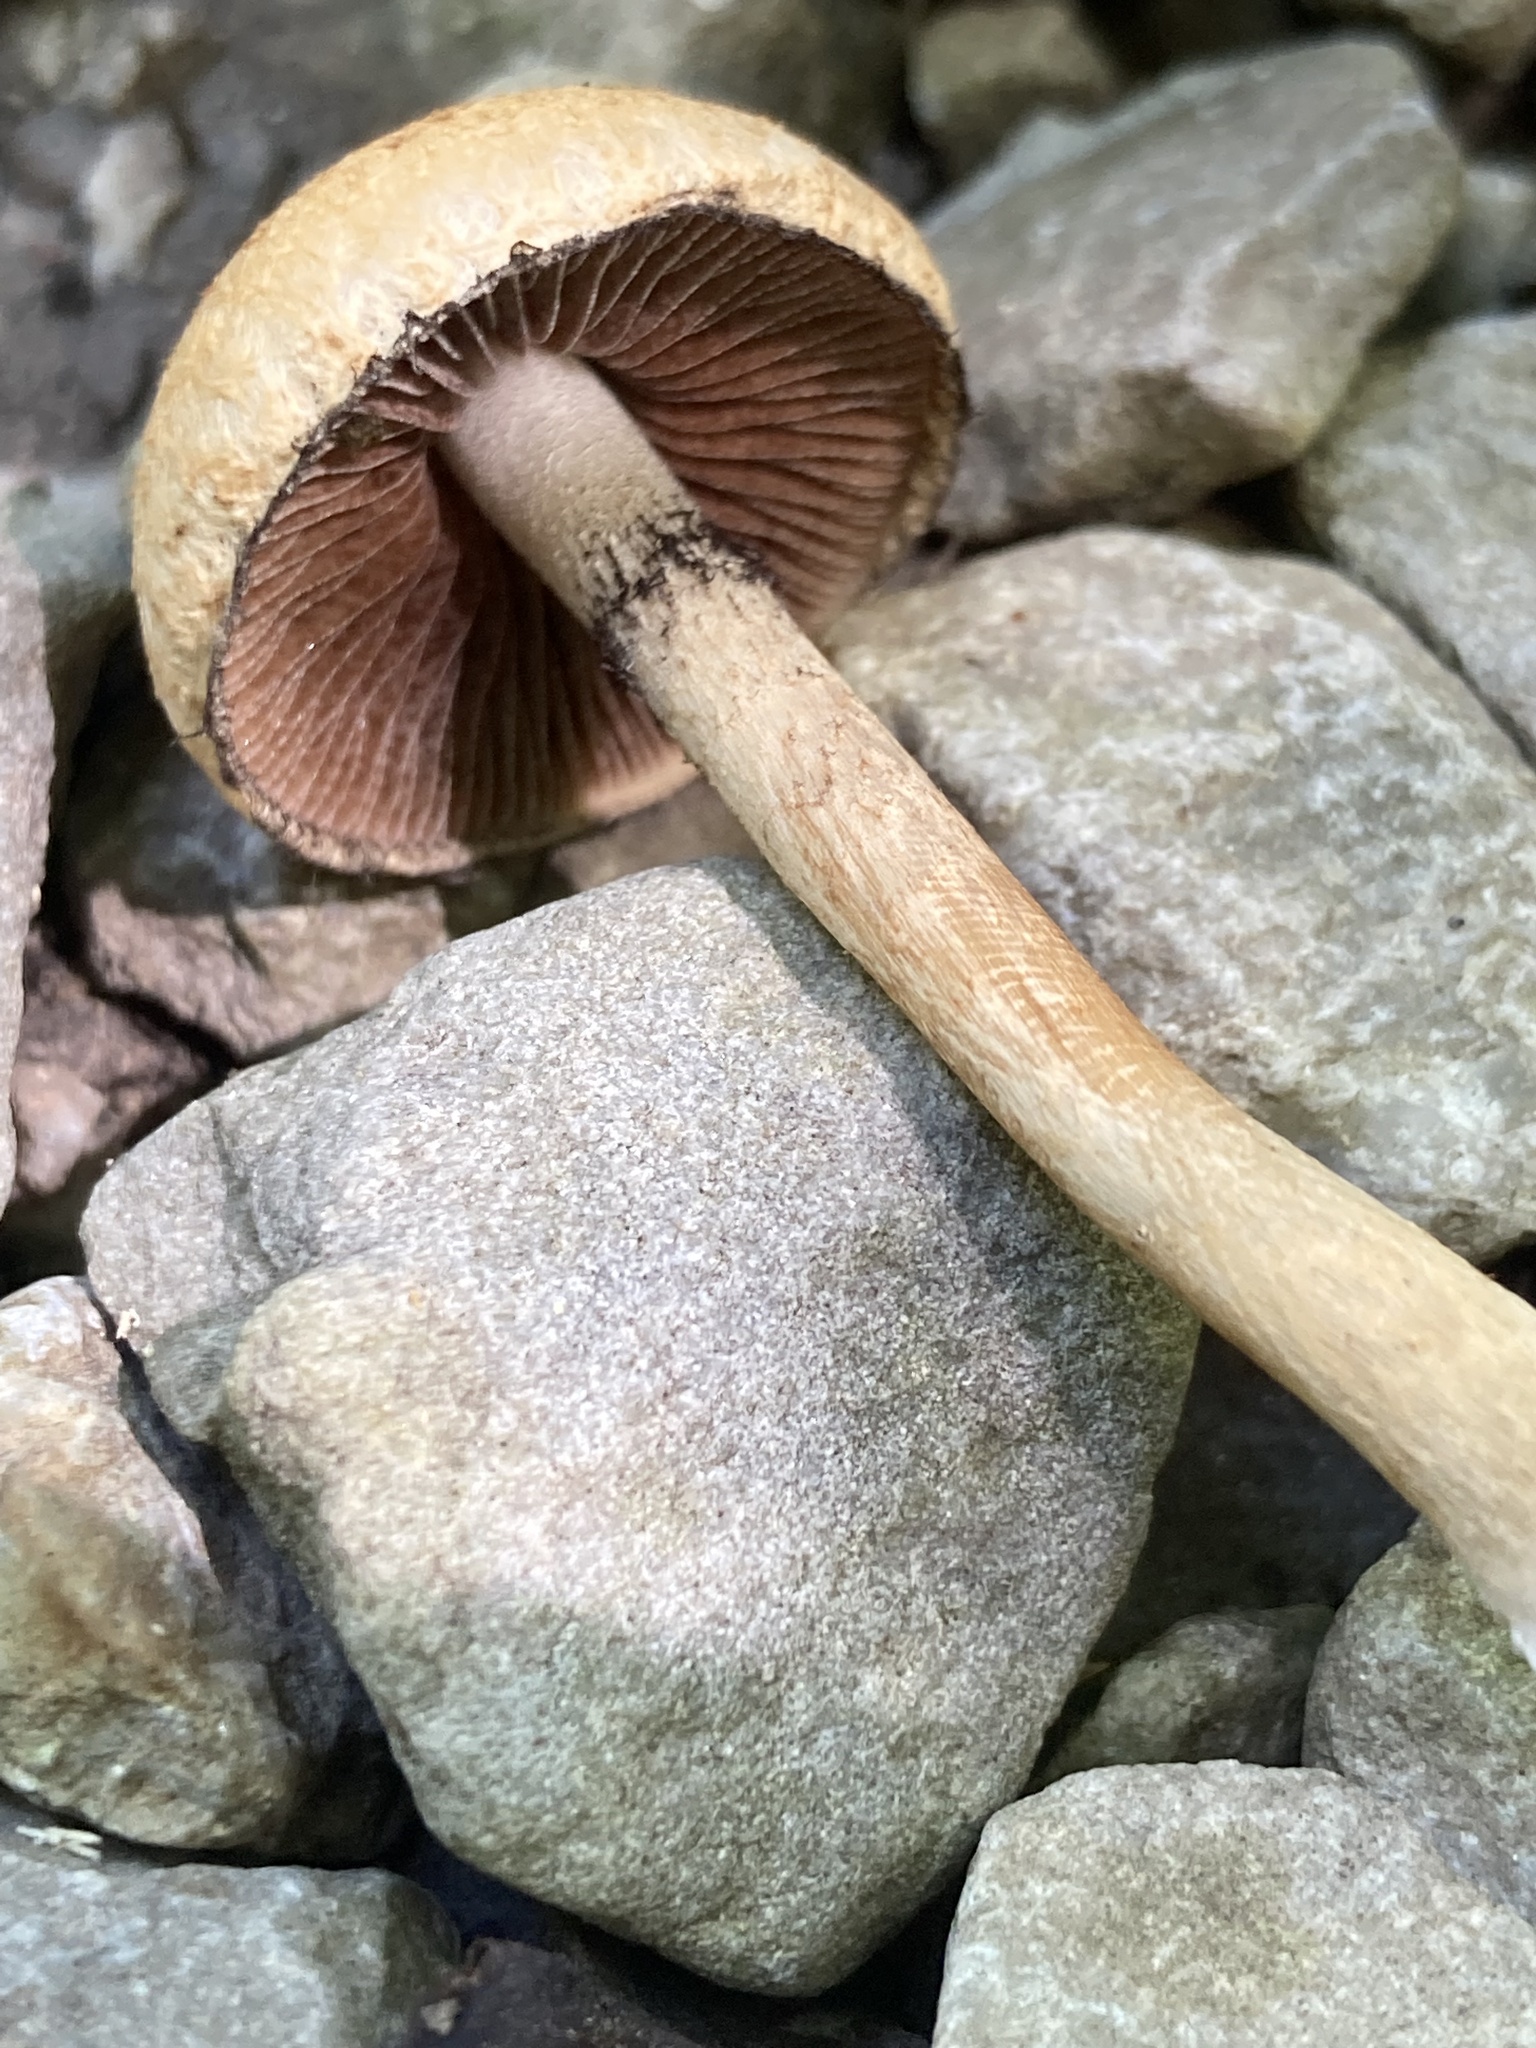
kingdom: Fungi
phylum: Basidiomycota
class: Agaricomycetes
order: Agaricales
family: Psathyrellaceae
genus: Lacrymaria
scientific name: Lacrymaria lacrymabunda
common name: Weeping widow
